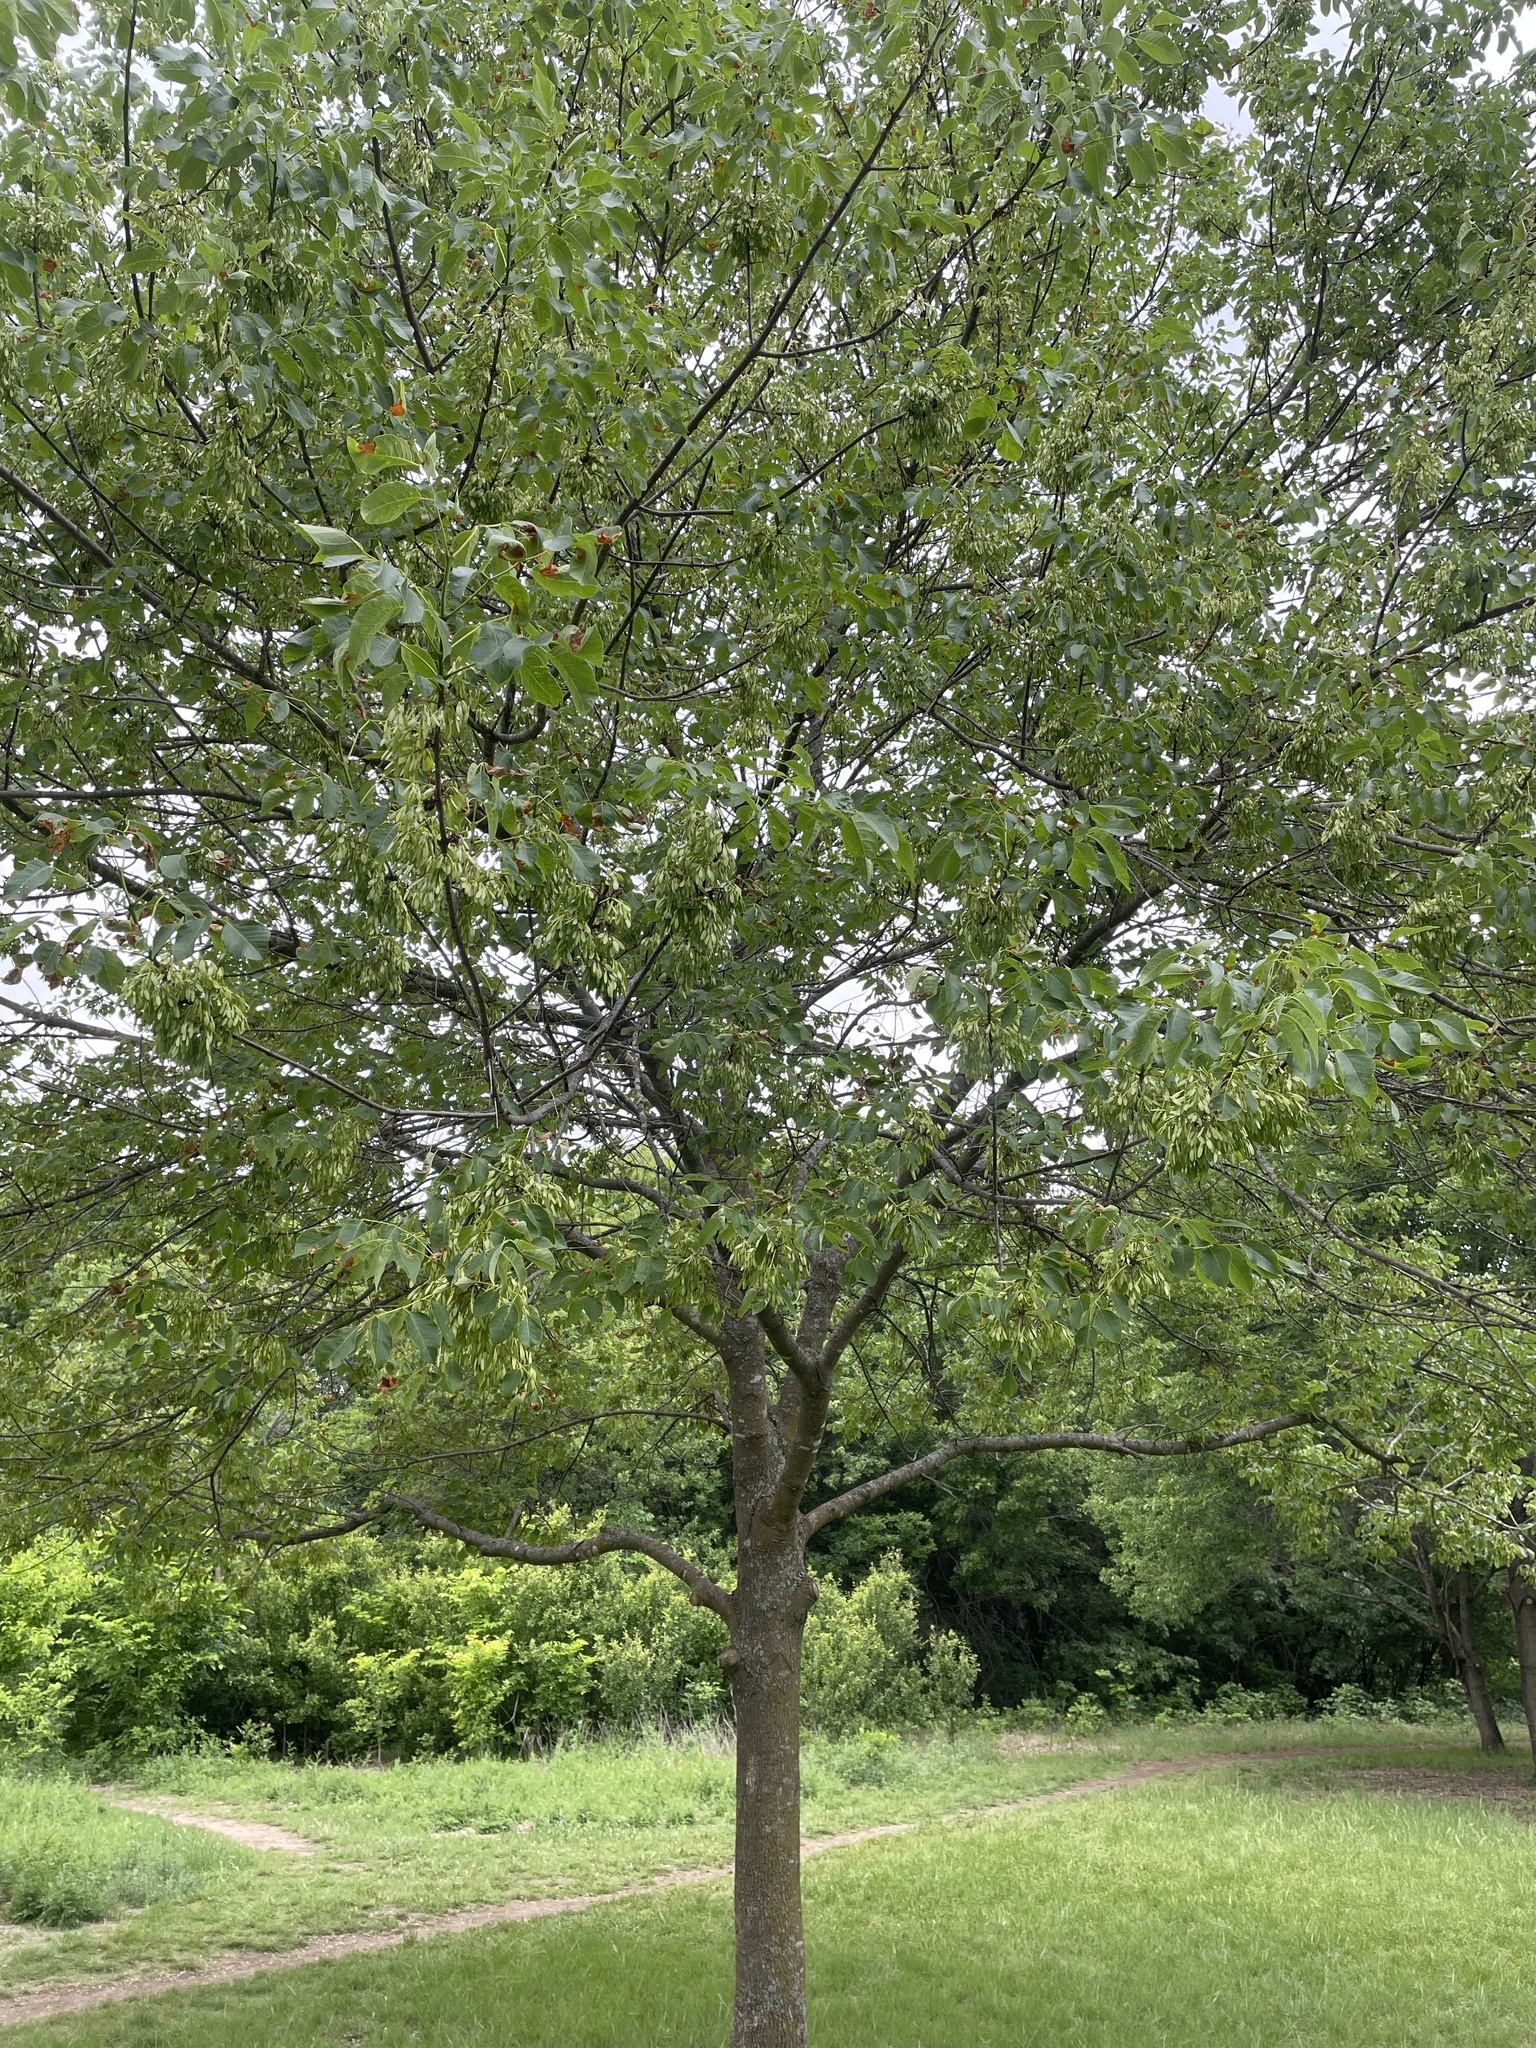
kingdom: Plantae
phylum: Tracheophyta
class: Magnoliopsida
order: Lamiales
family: Oleaceae
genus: Fraxinus
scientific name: Fraxinus albicans
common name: Texas ash
